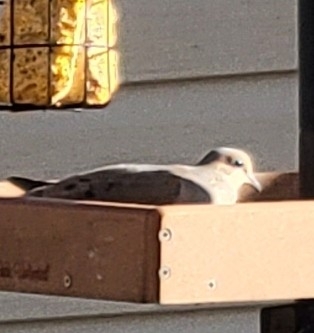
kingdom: Animalia
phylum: Chordata
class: Aves
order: Columbiformes
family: Columbidae
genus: Zenaida
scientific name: Zenaida macroura
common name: Mourning dove
